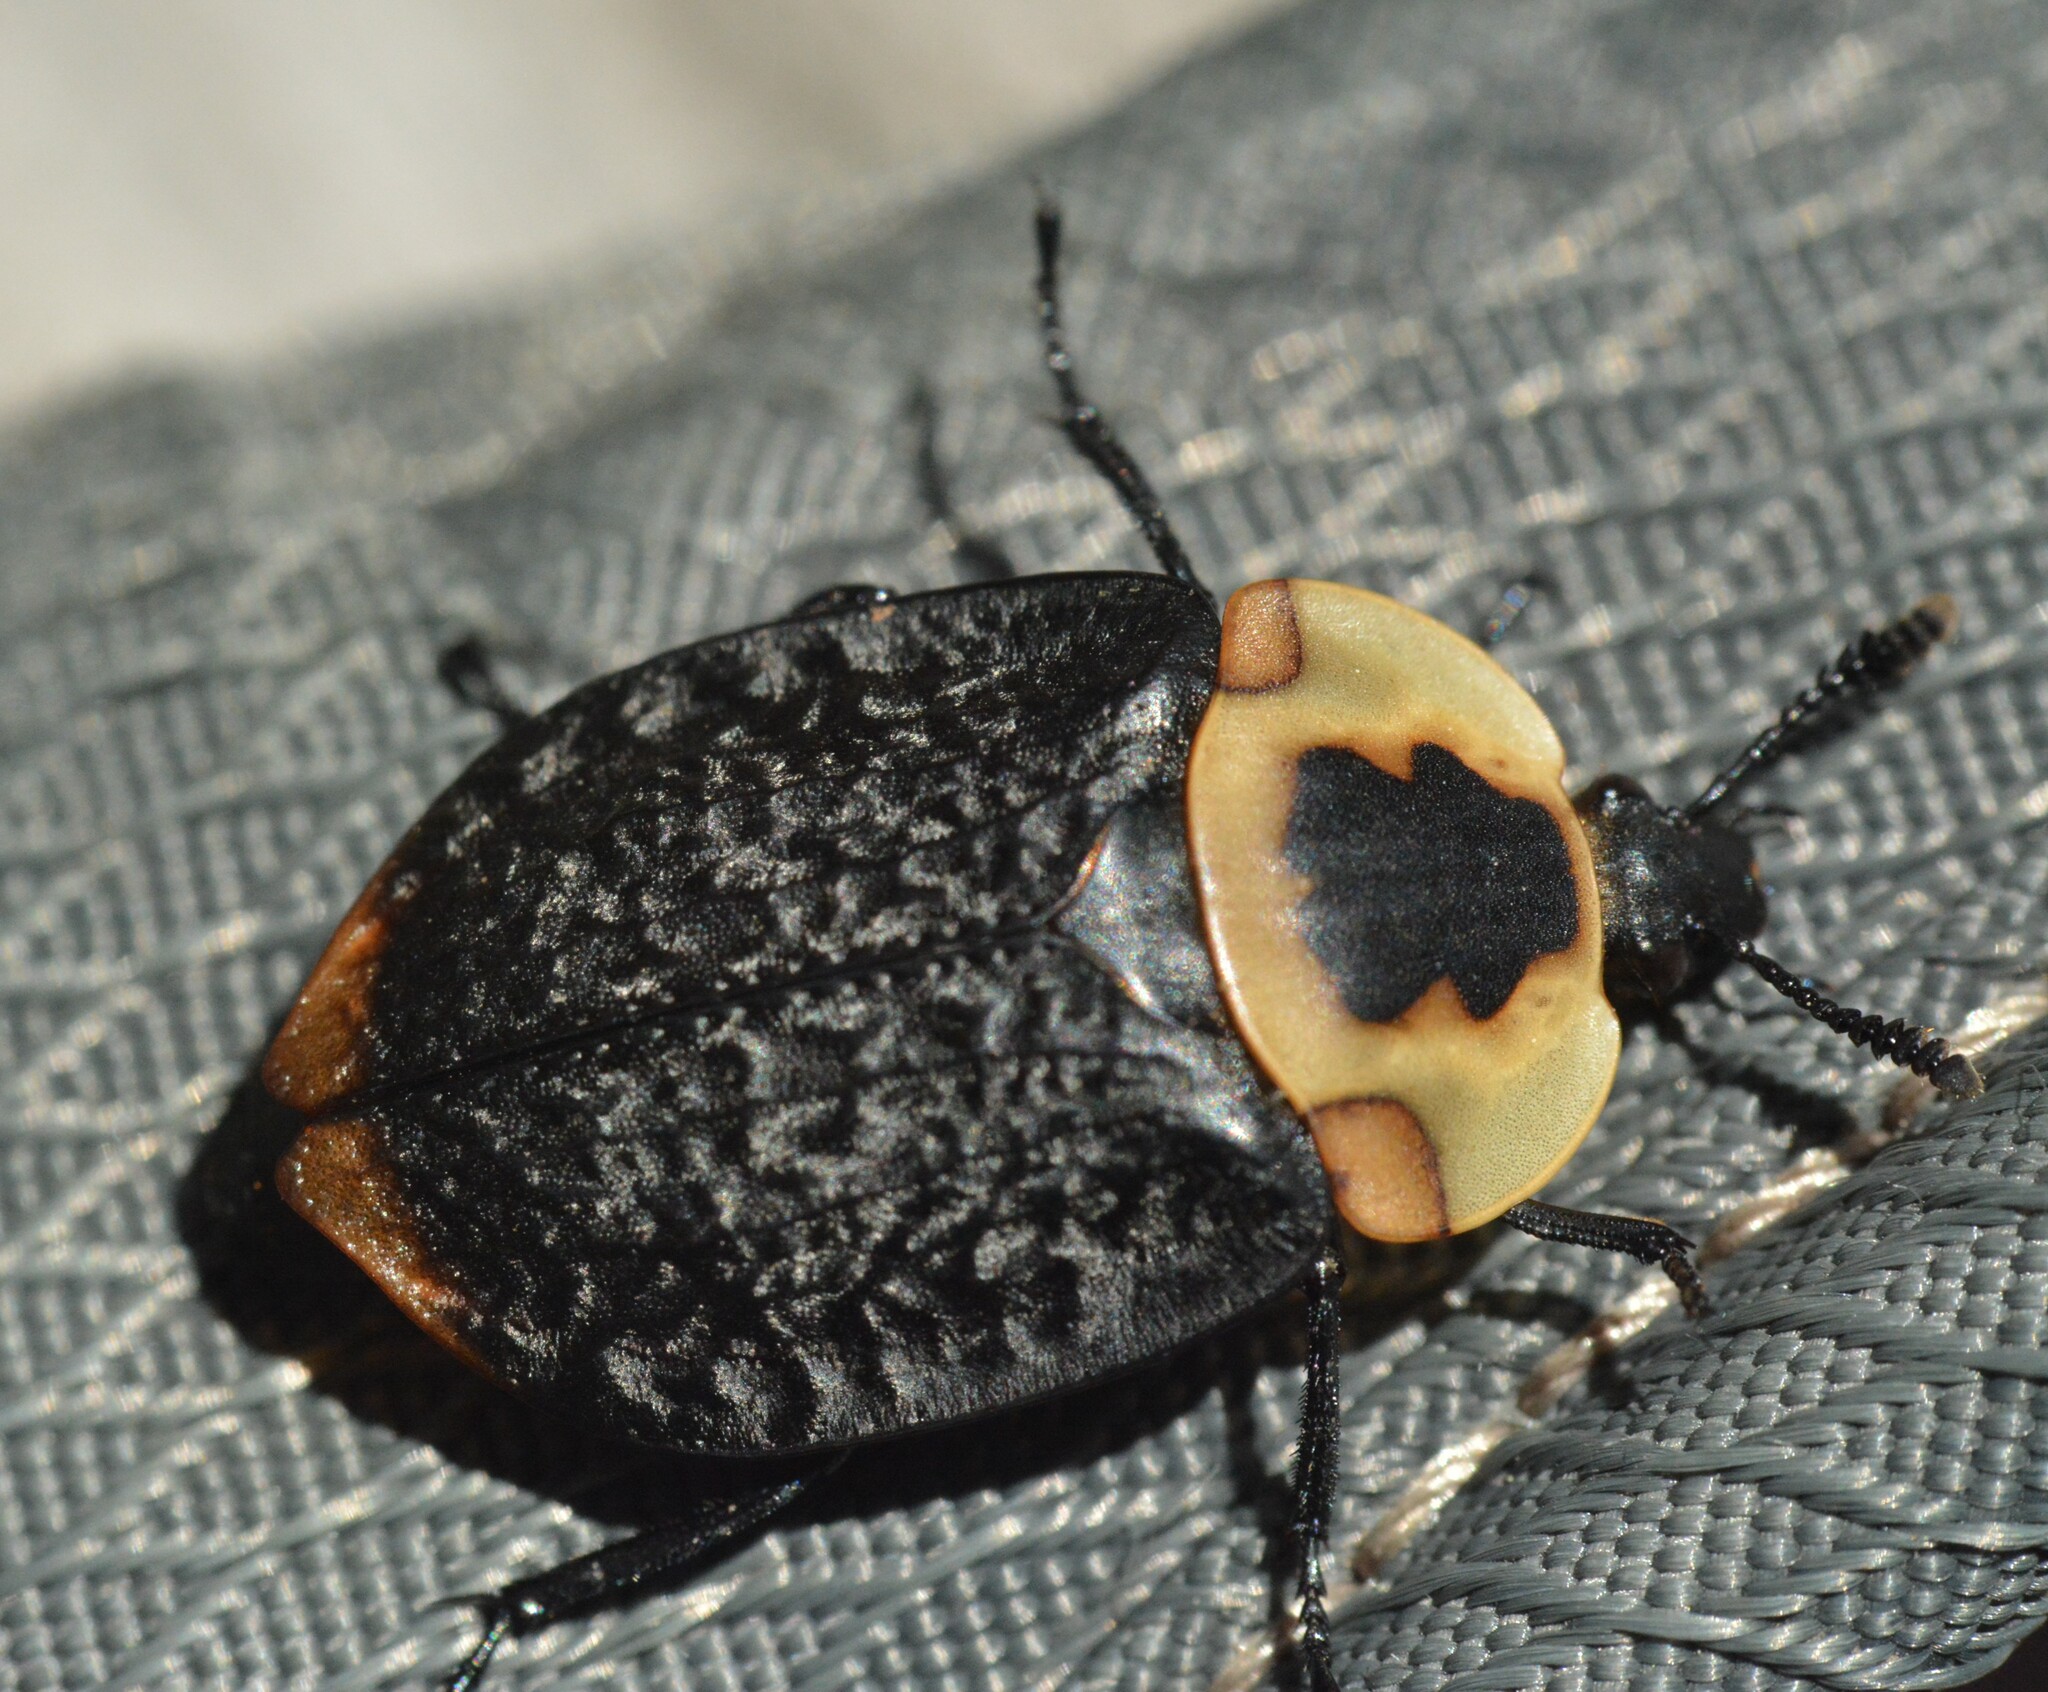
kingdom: Animalia
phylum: Arthropoda
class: Insecta
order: Coleoptera
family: Staphylinidae
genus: Necrophila
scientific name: Necrophila americana
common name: American carrion beetle
